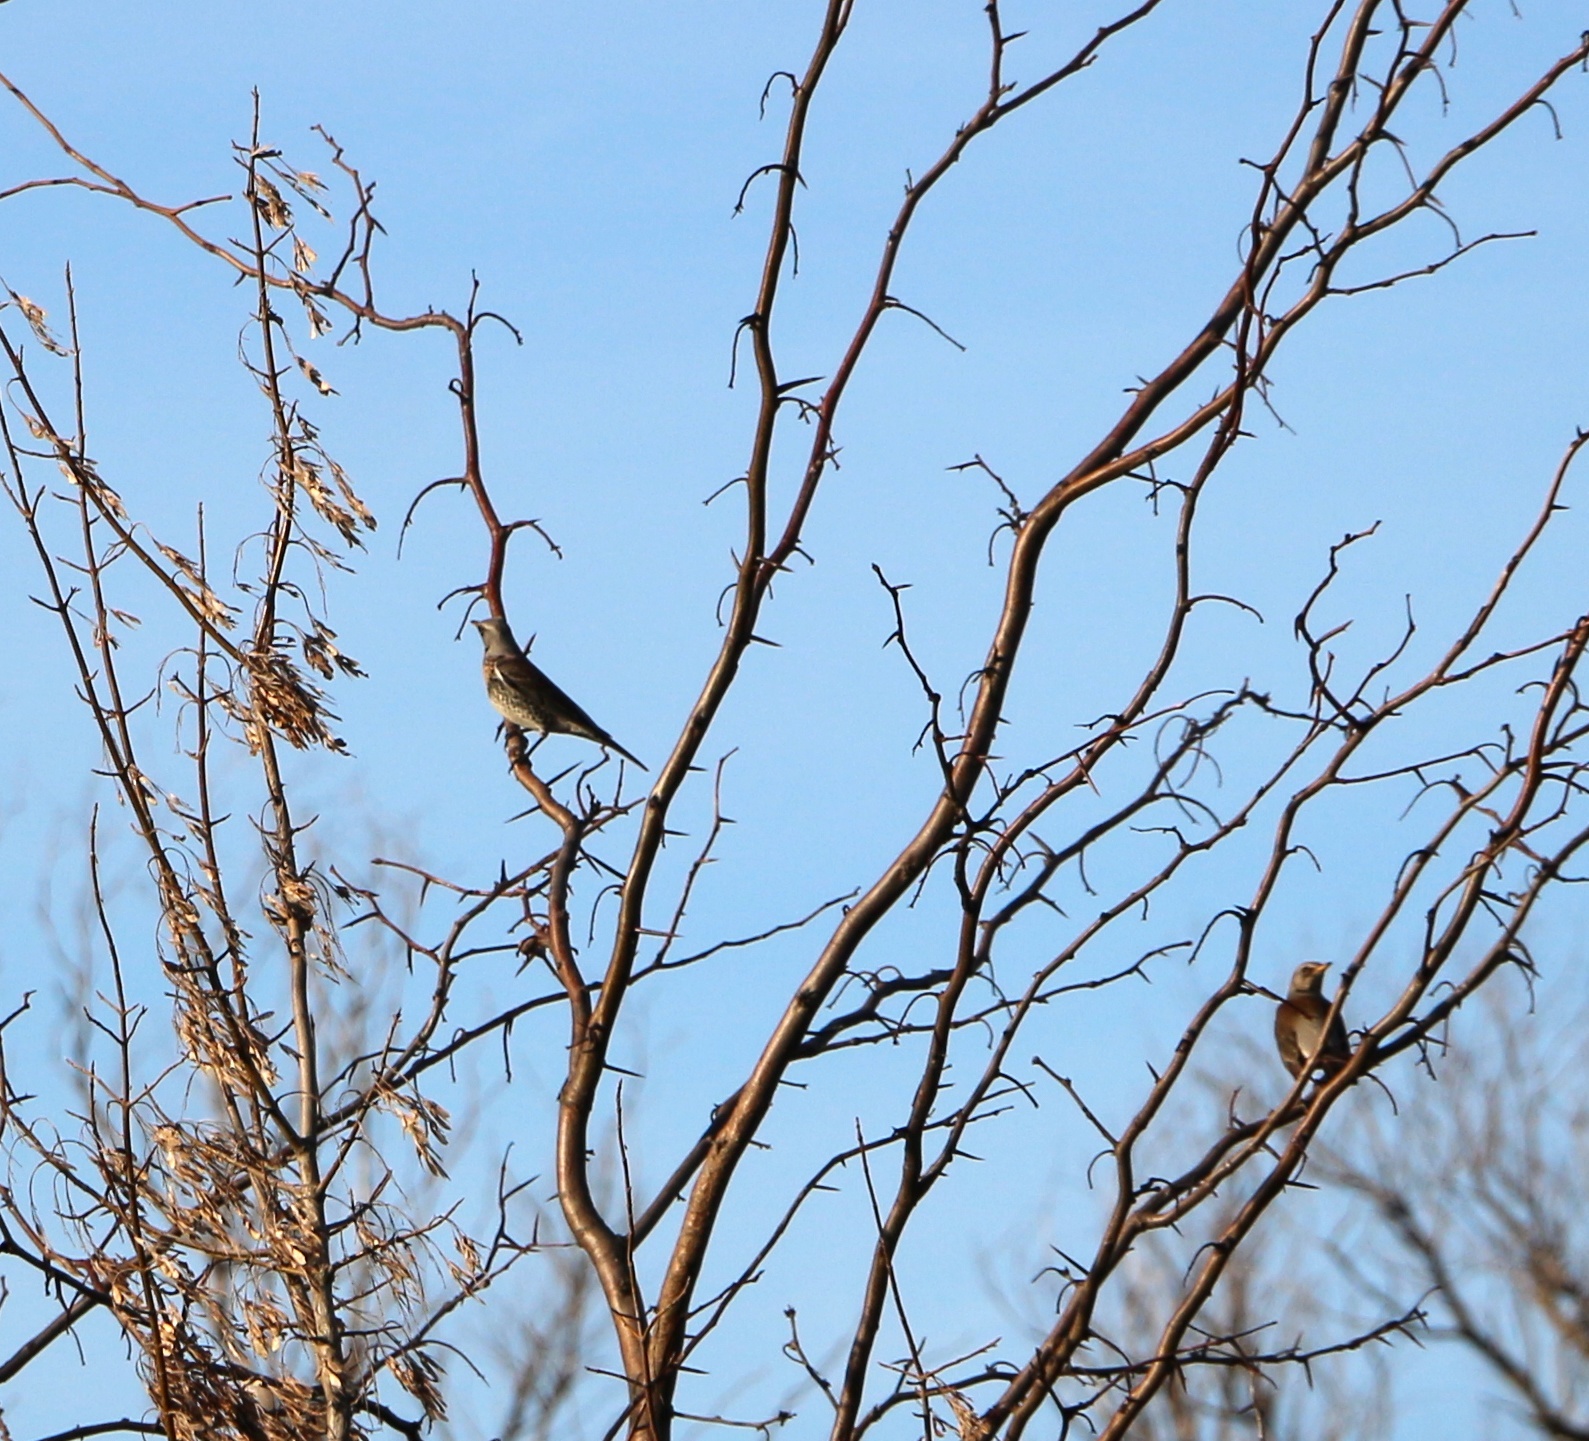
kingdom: Animalia
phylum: Chordata
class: Aves
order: Passeriformes
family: Turdidae
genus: Turdus
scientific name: Turdus pilaris
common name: Fieldfare
